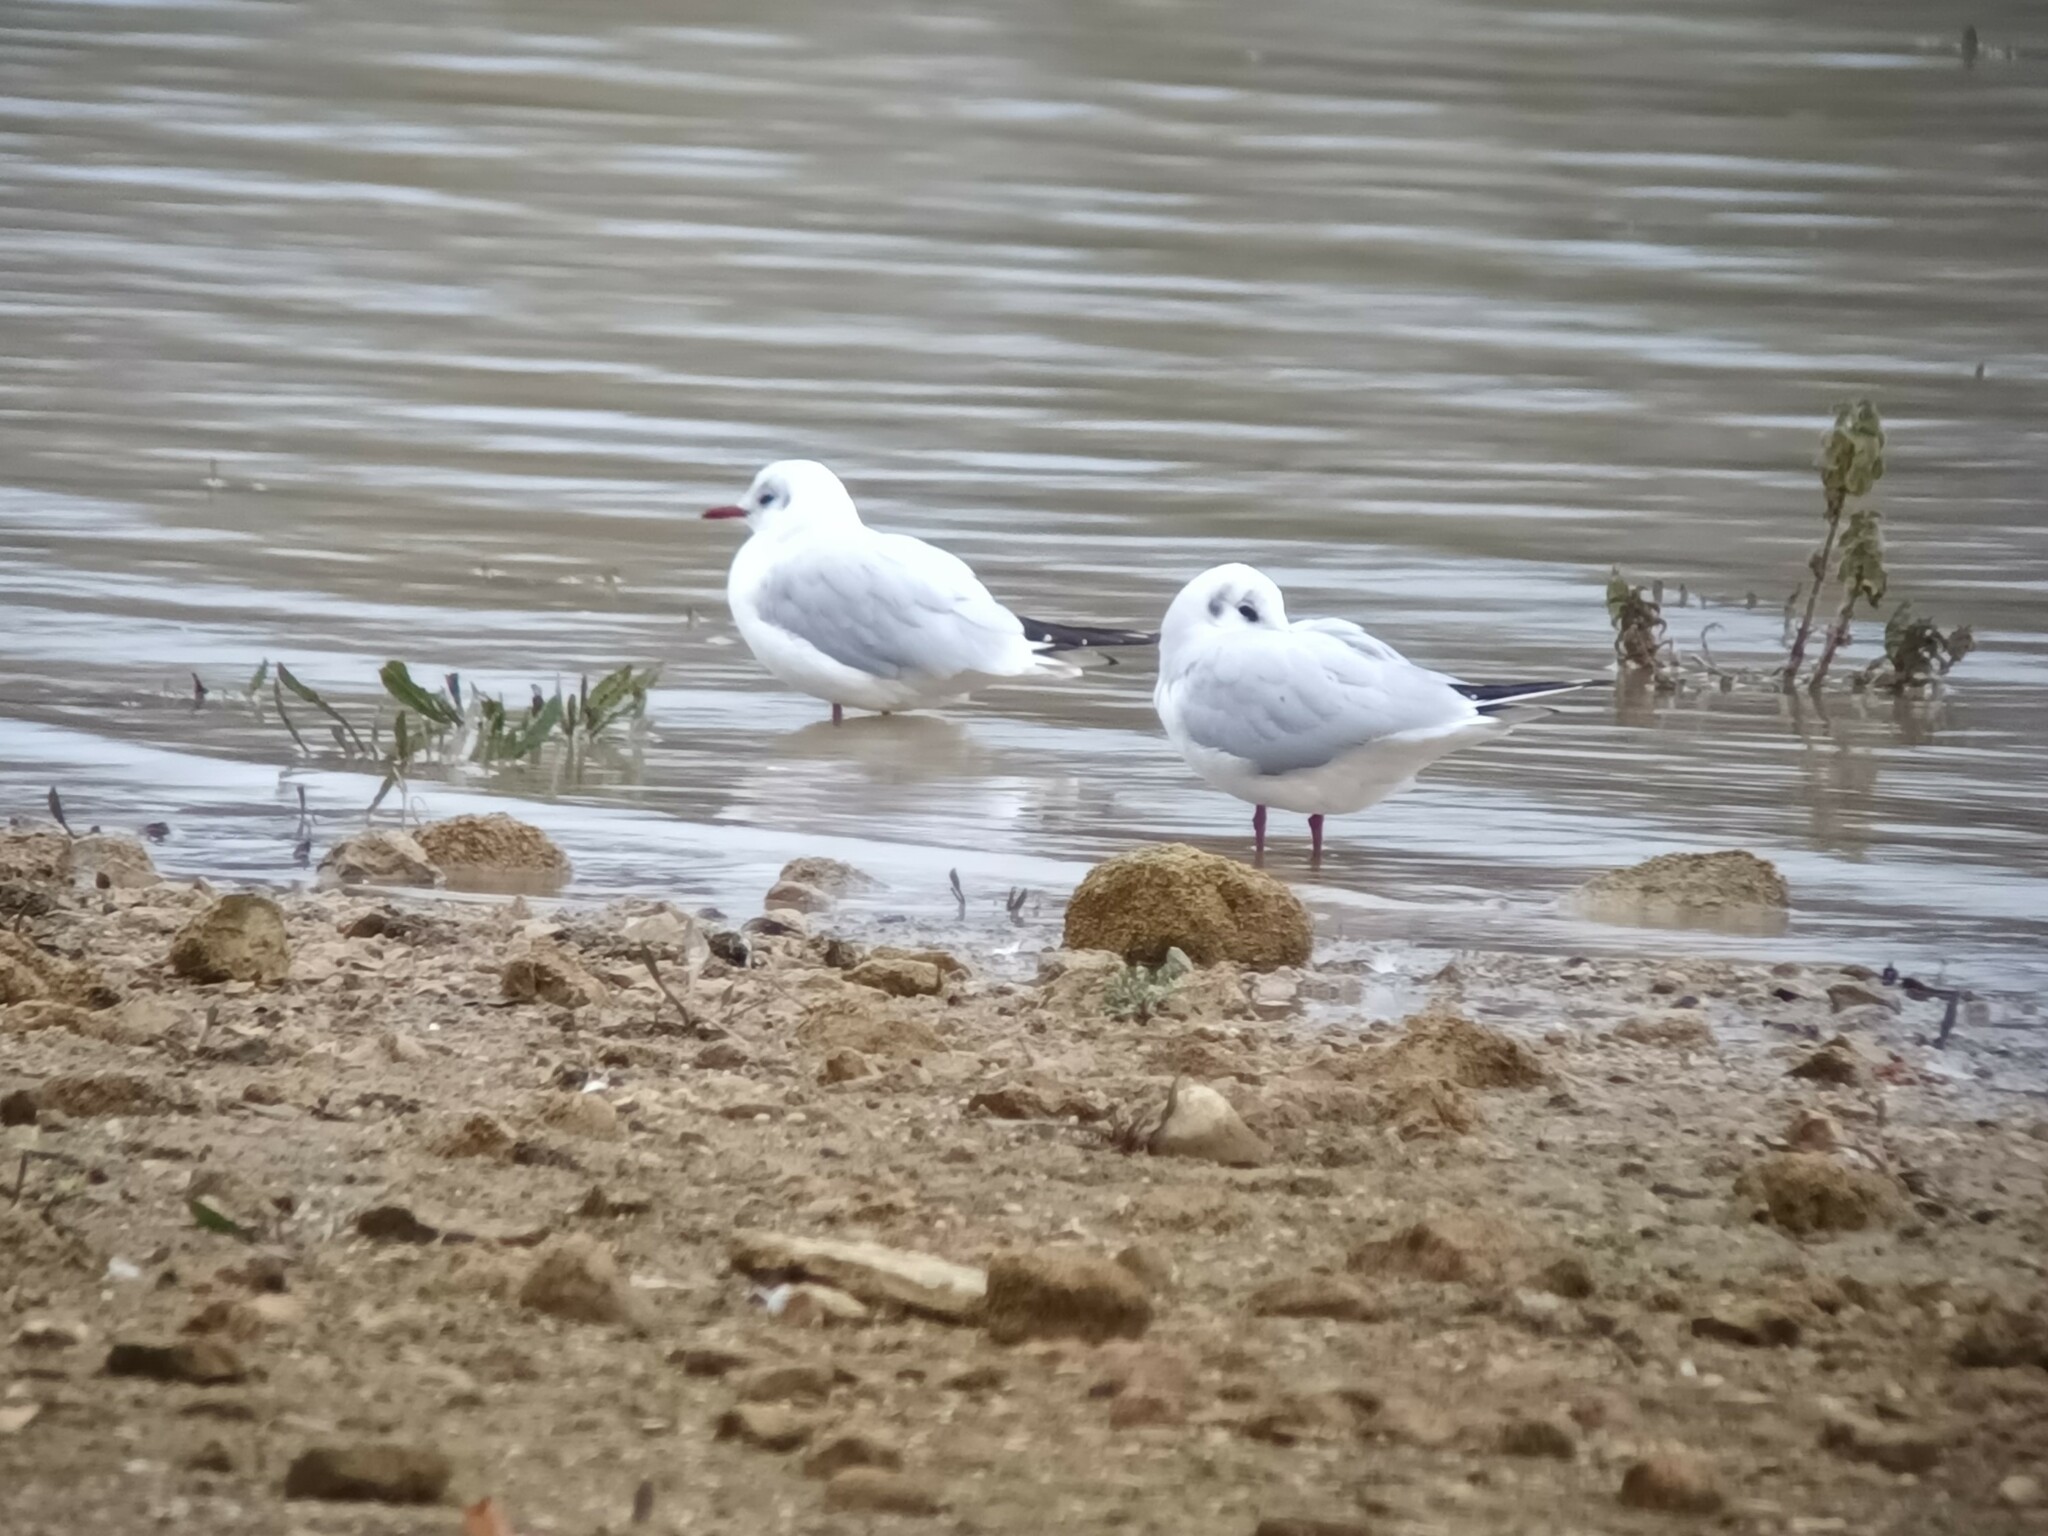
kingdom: Animalia
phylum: Chordata
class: Aves
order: Charadriiformes
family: Laridae
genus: Chroicocephalus
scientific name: Chroicocephalus ridibundus
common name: Black-headed gull
